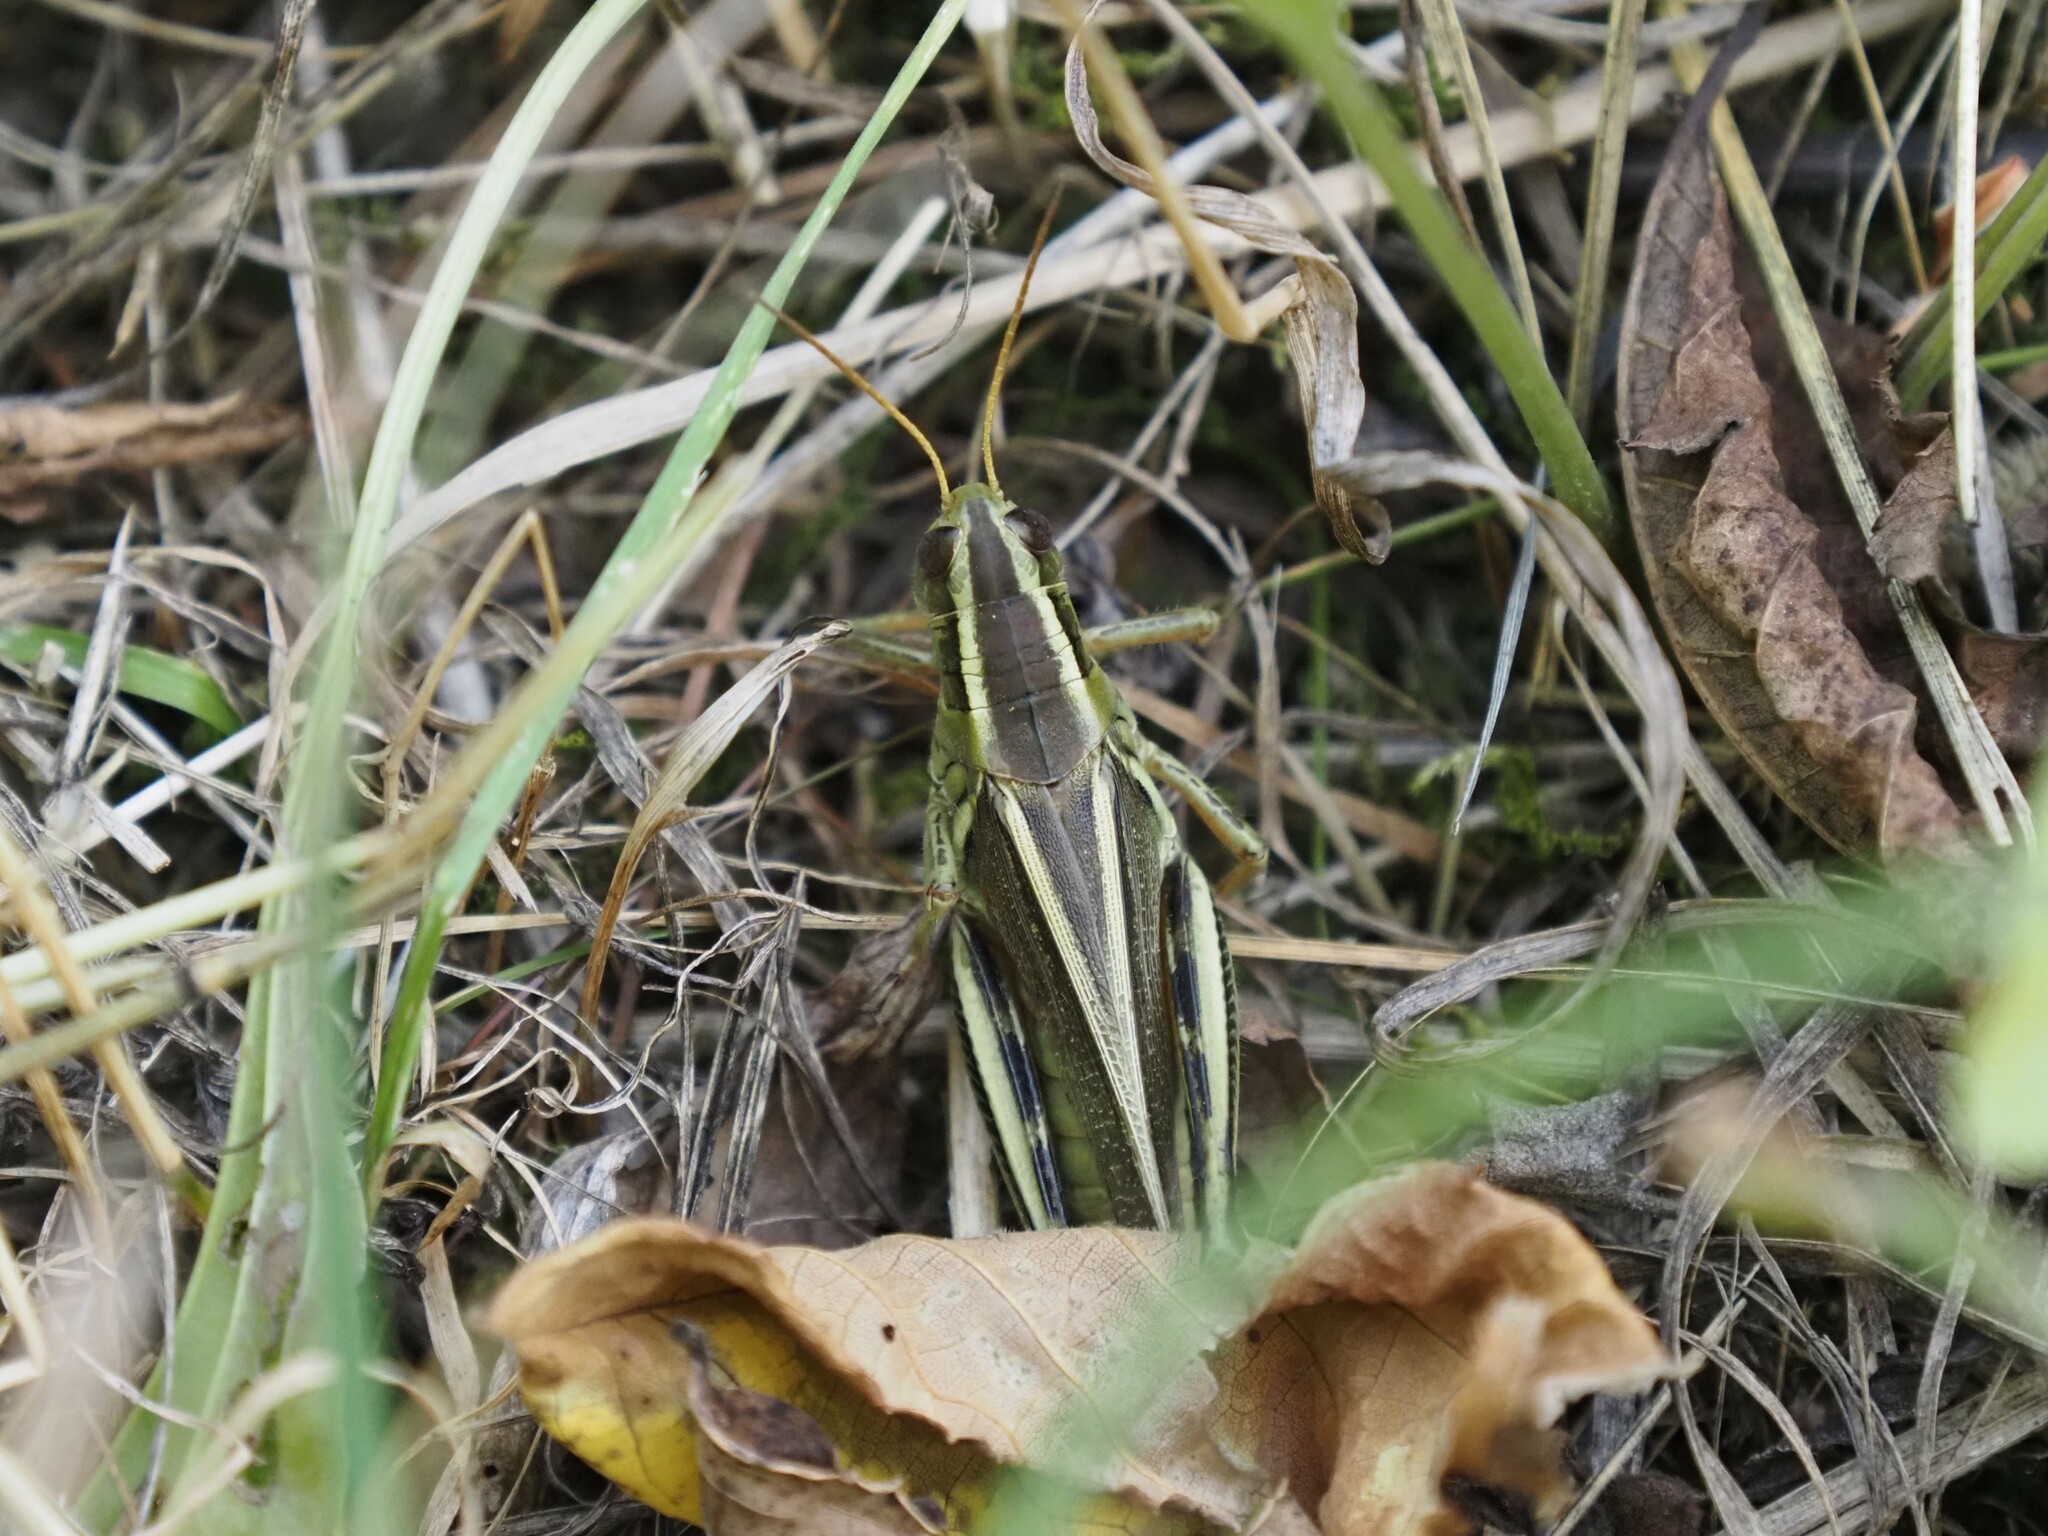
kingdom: Animalia
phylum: Arthropoda
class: Insecta
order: Orthoptera
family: Acrididae
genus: Melanoplus
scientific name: Melanoplus bivittatus
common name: Two-striped grasshopper
